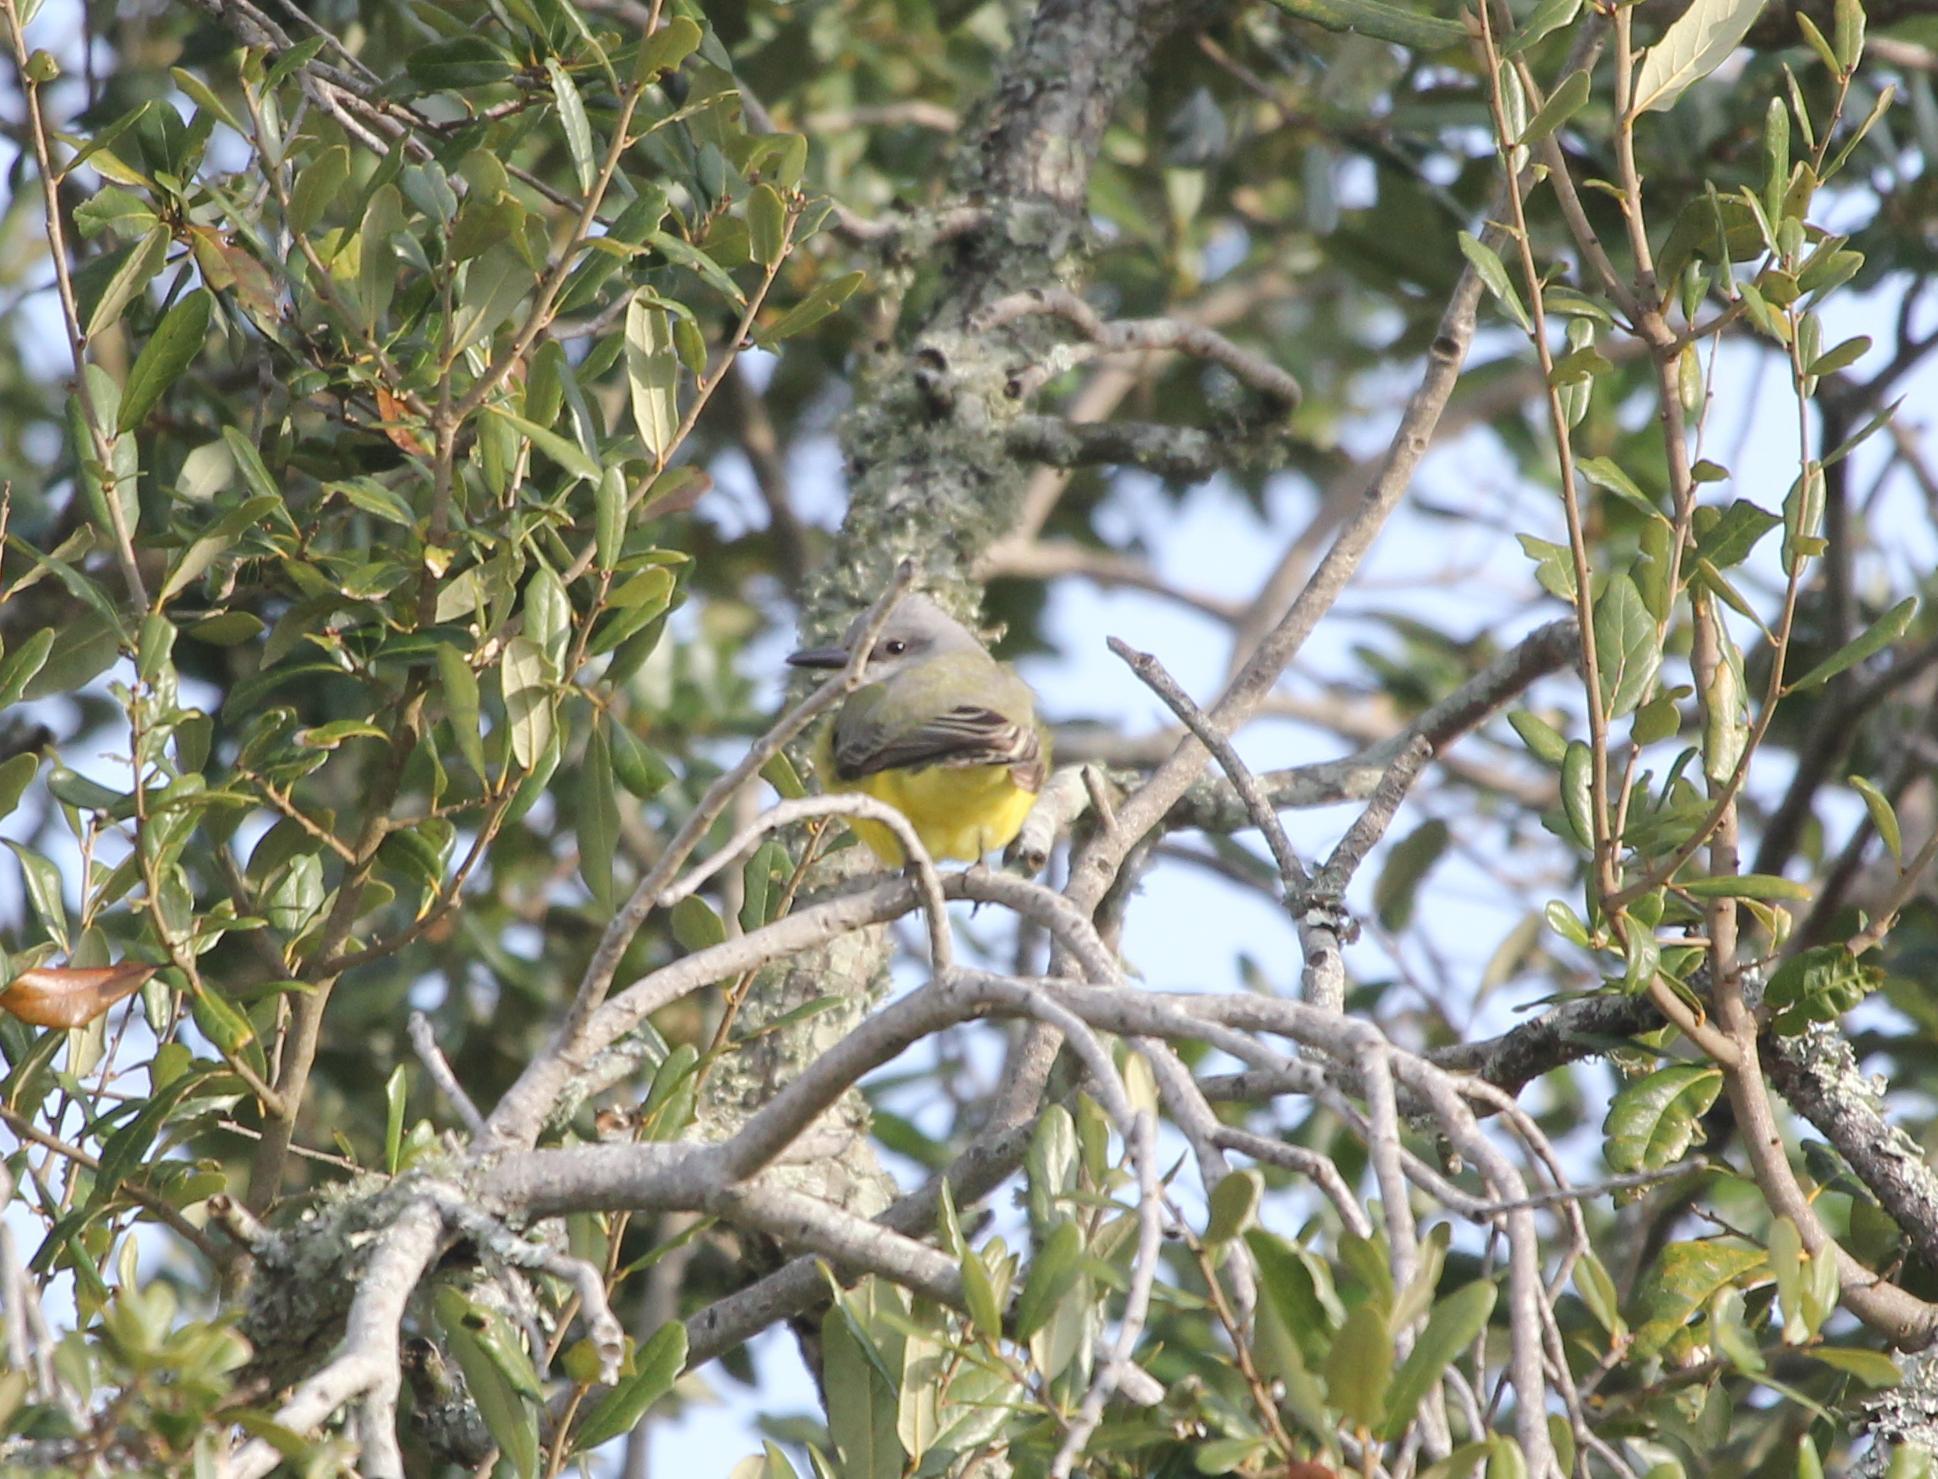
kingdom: Animalia
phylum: Chordata
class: Aves
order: Passeriformes
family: Tyrannidae
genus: Tyrannus
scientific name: Tyrannus melancholicus
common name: Tropical kingbird
